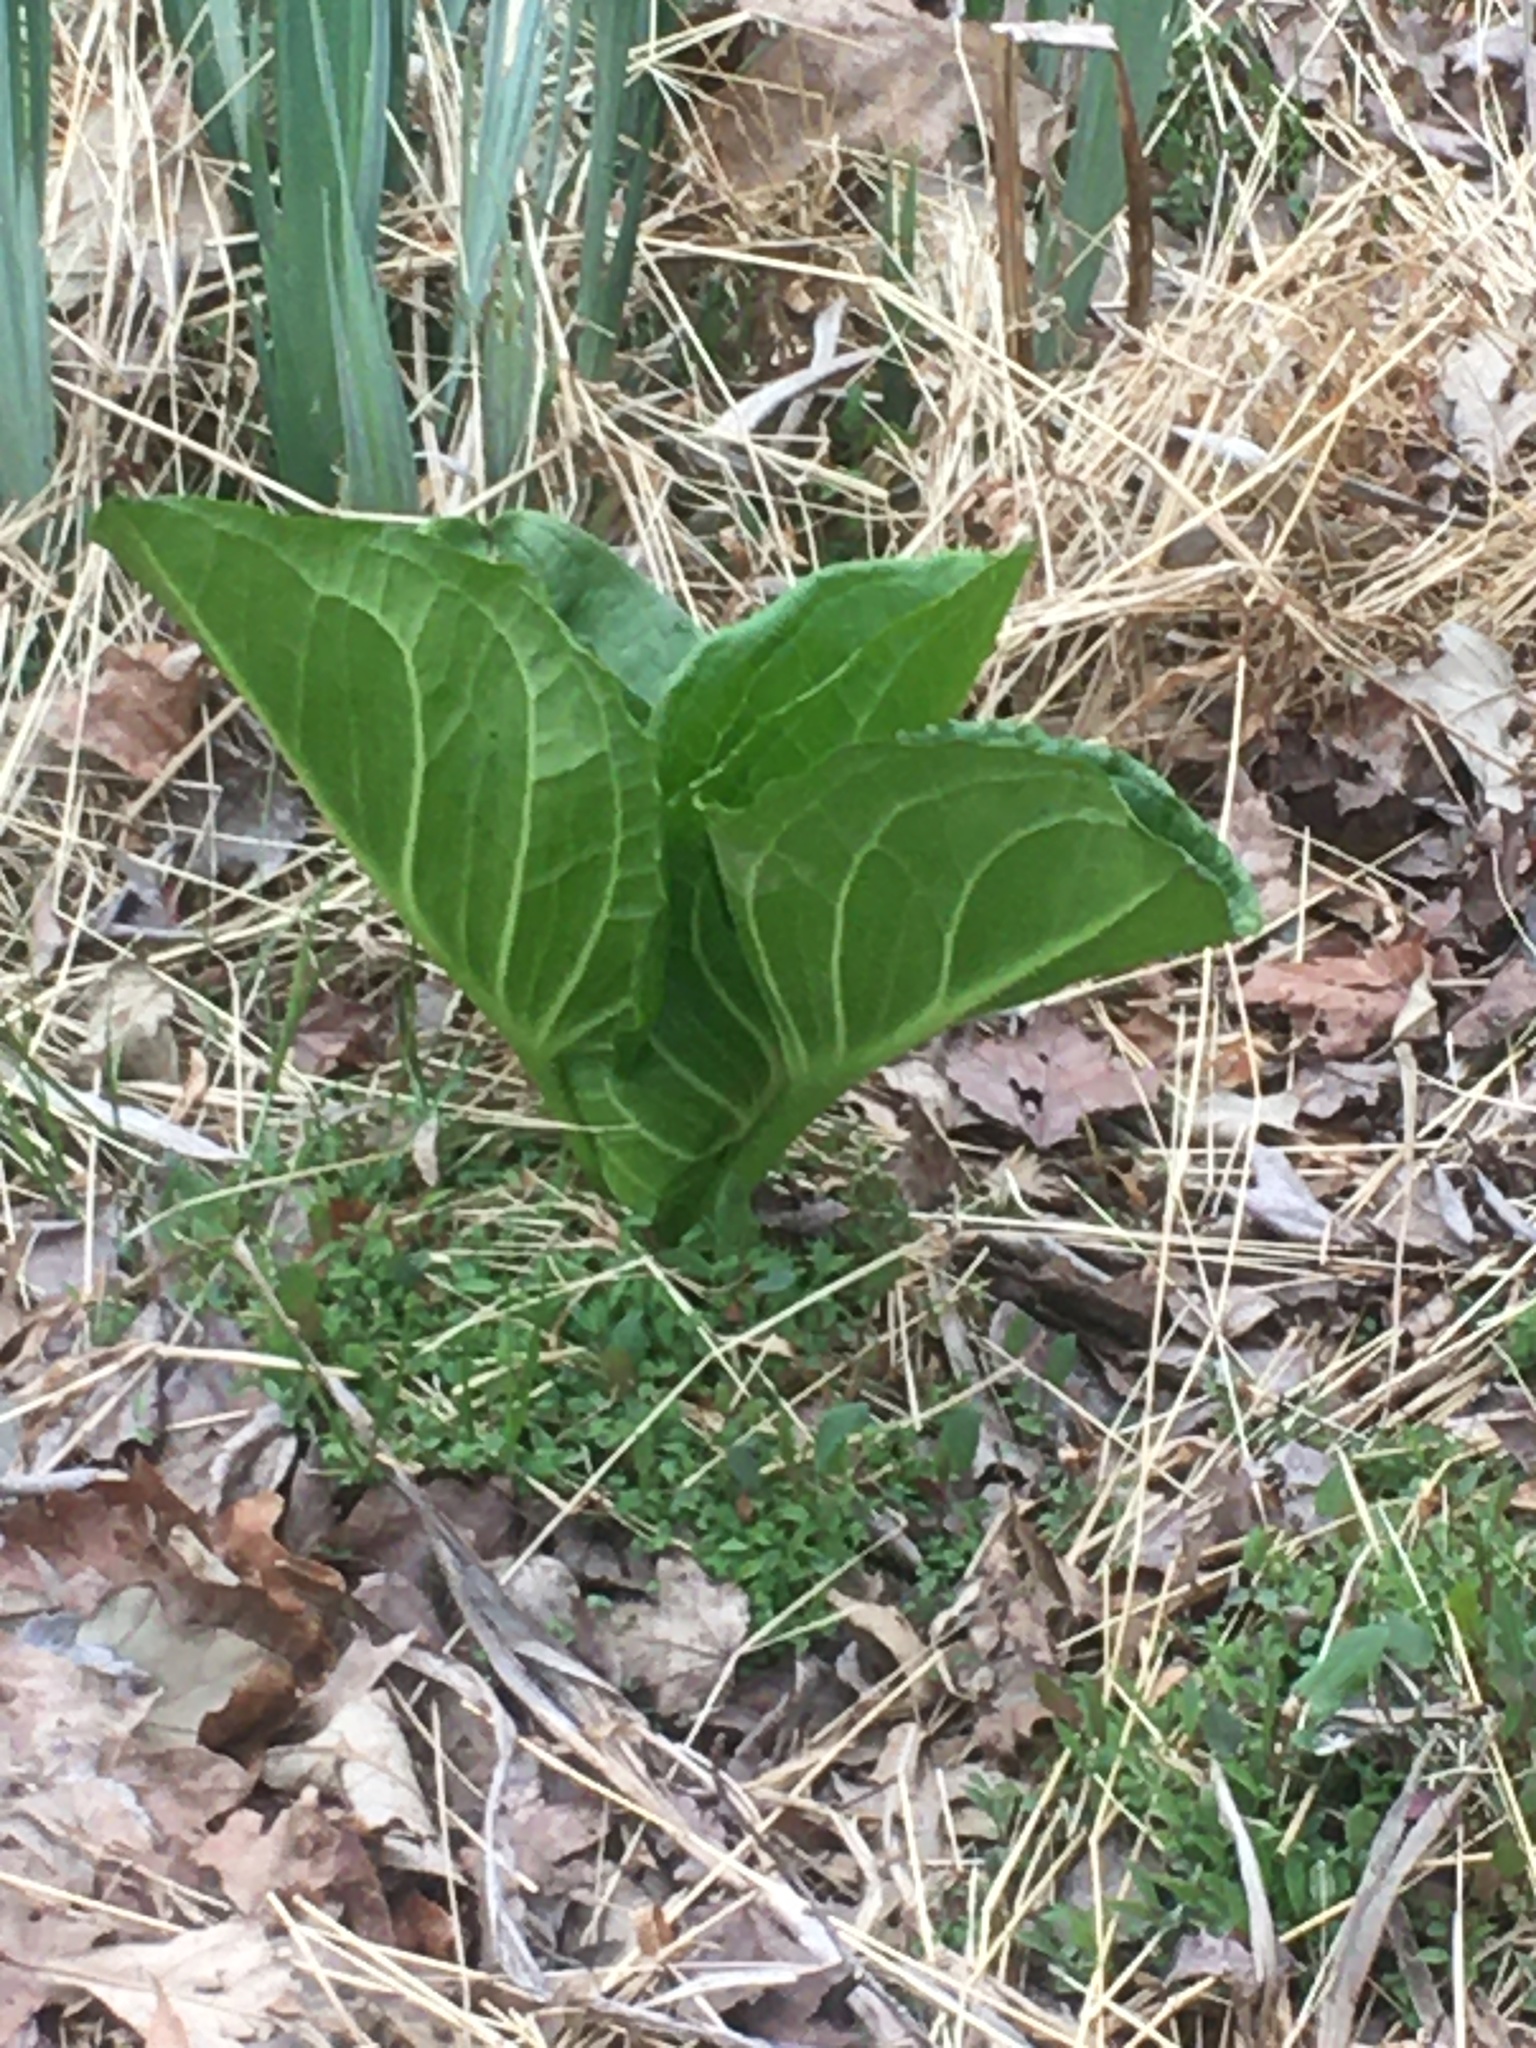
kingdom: Plantae
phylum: Tracheophyta
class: Liliopsida
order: Alismatales
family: Araceae
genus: Symplocarpus
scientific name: Symplocarpus foetidus
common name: Eastern skunk cabbage
